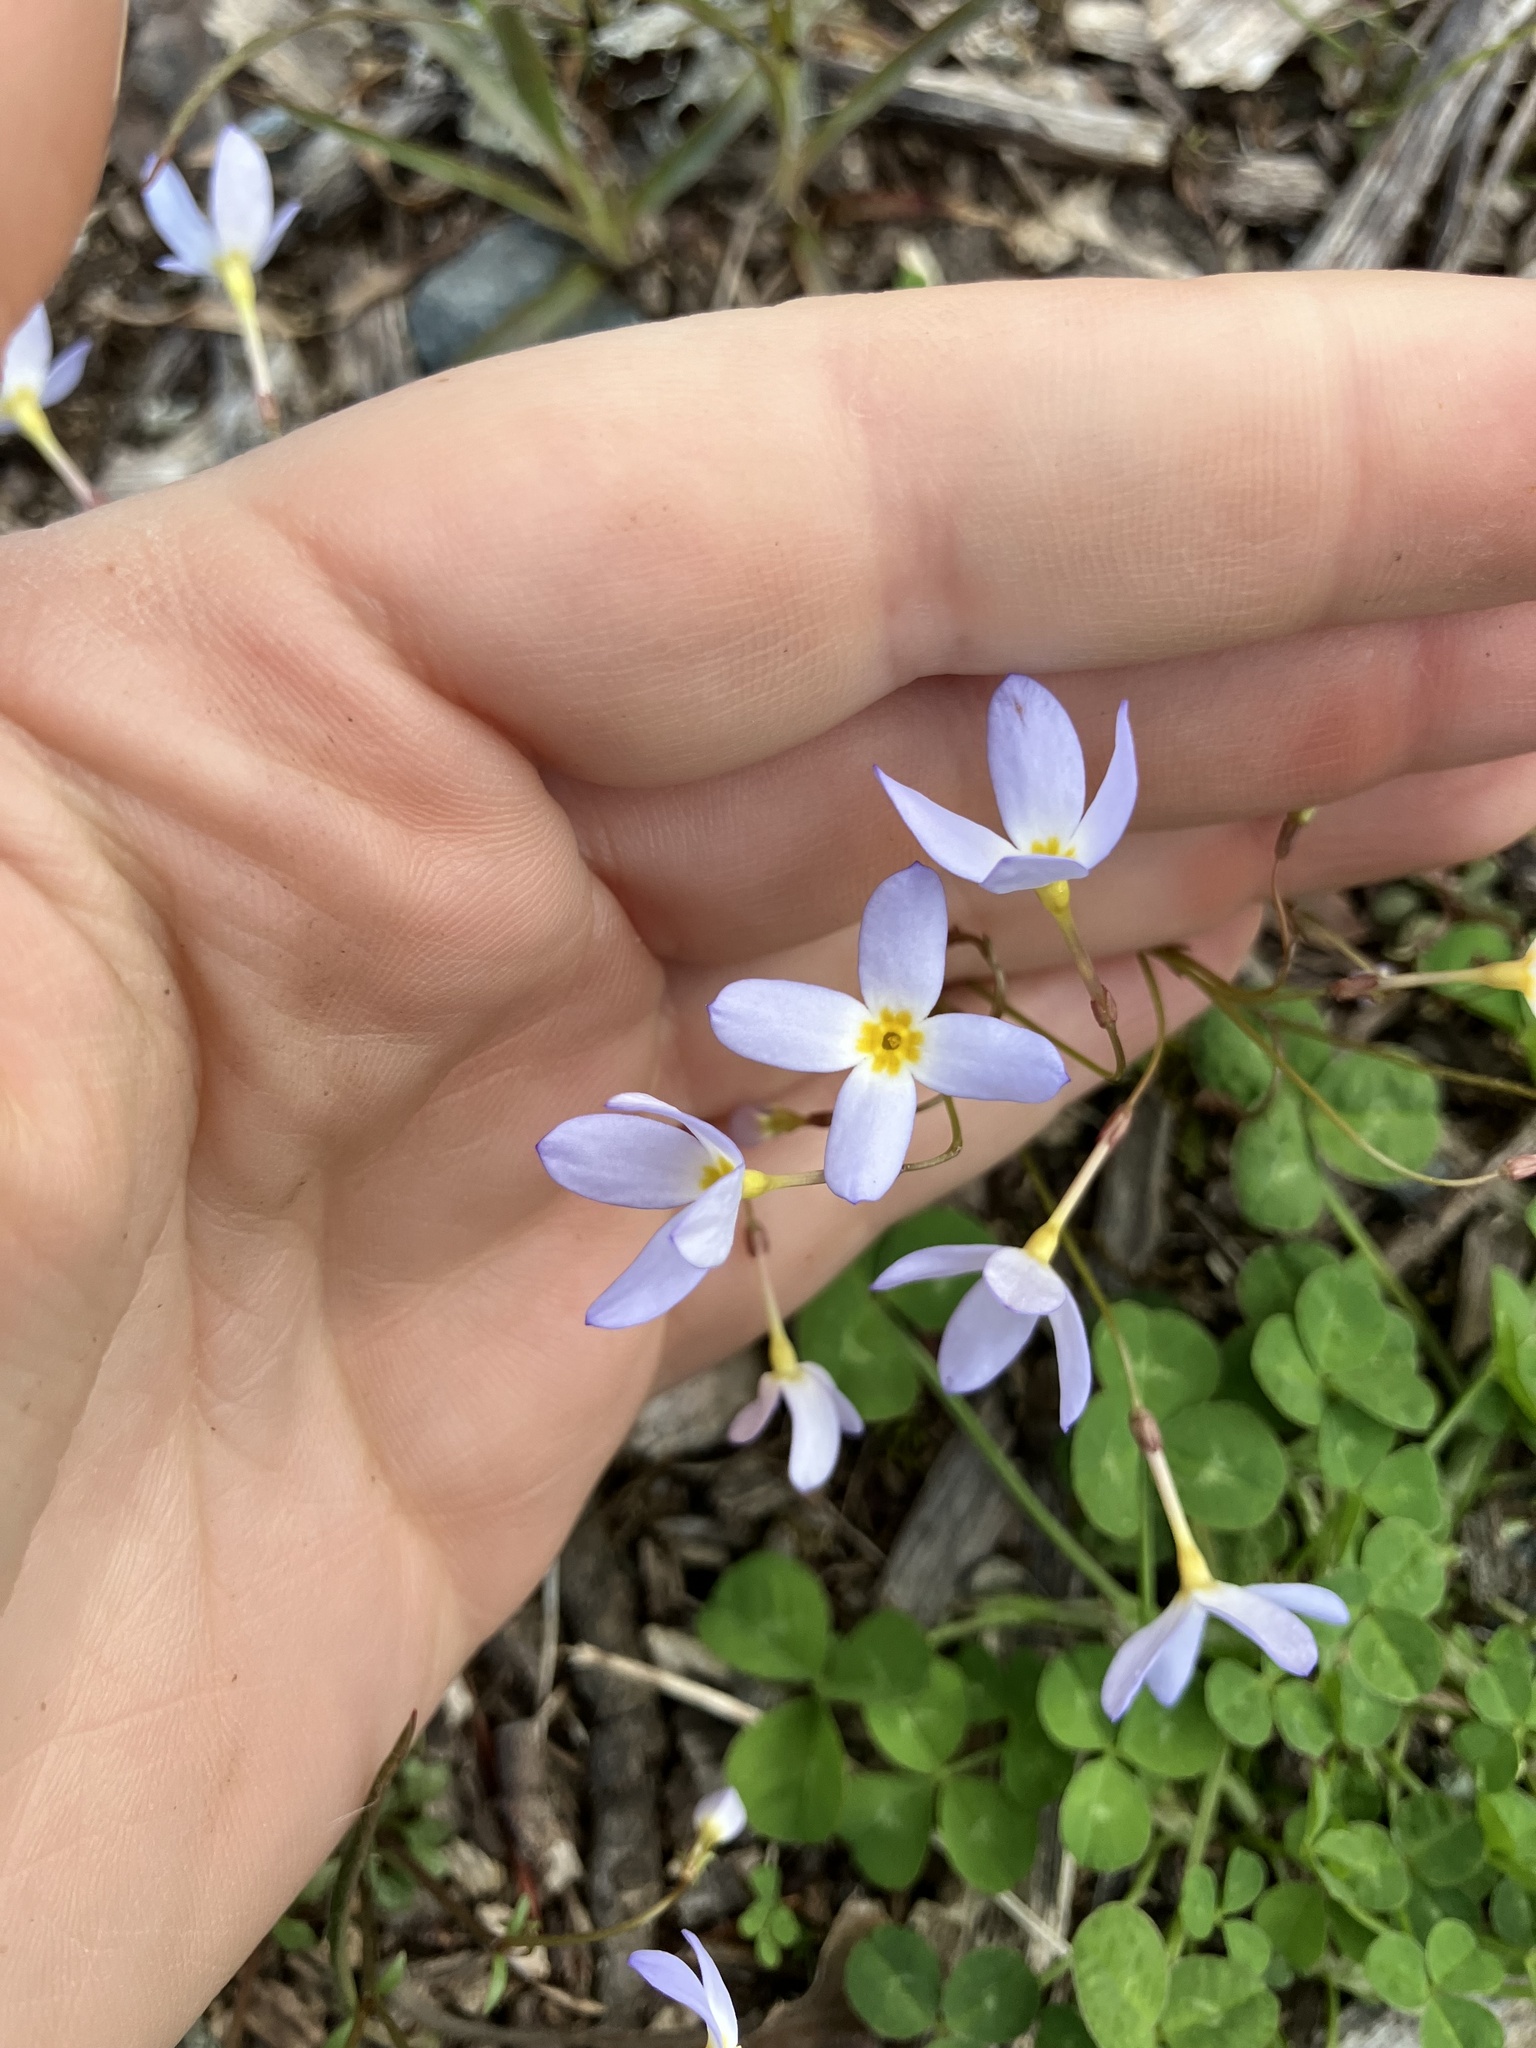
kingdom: Plantae
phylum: Tracheophyta
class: Magnoliopsida
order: Gentianales
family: Rubiaceae
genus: Houstonia
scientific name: Houstonia caerulea
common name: Bluets
